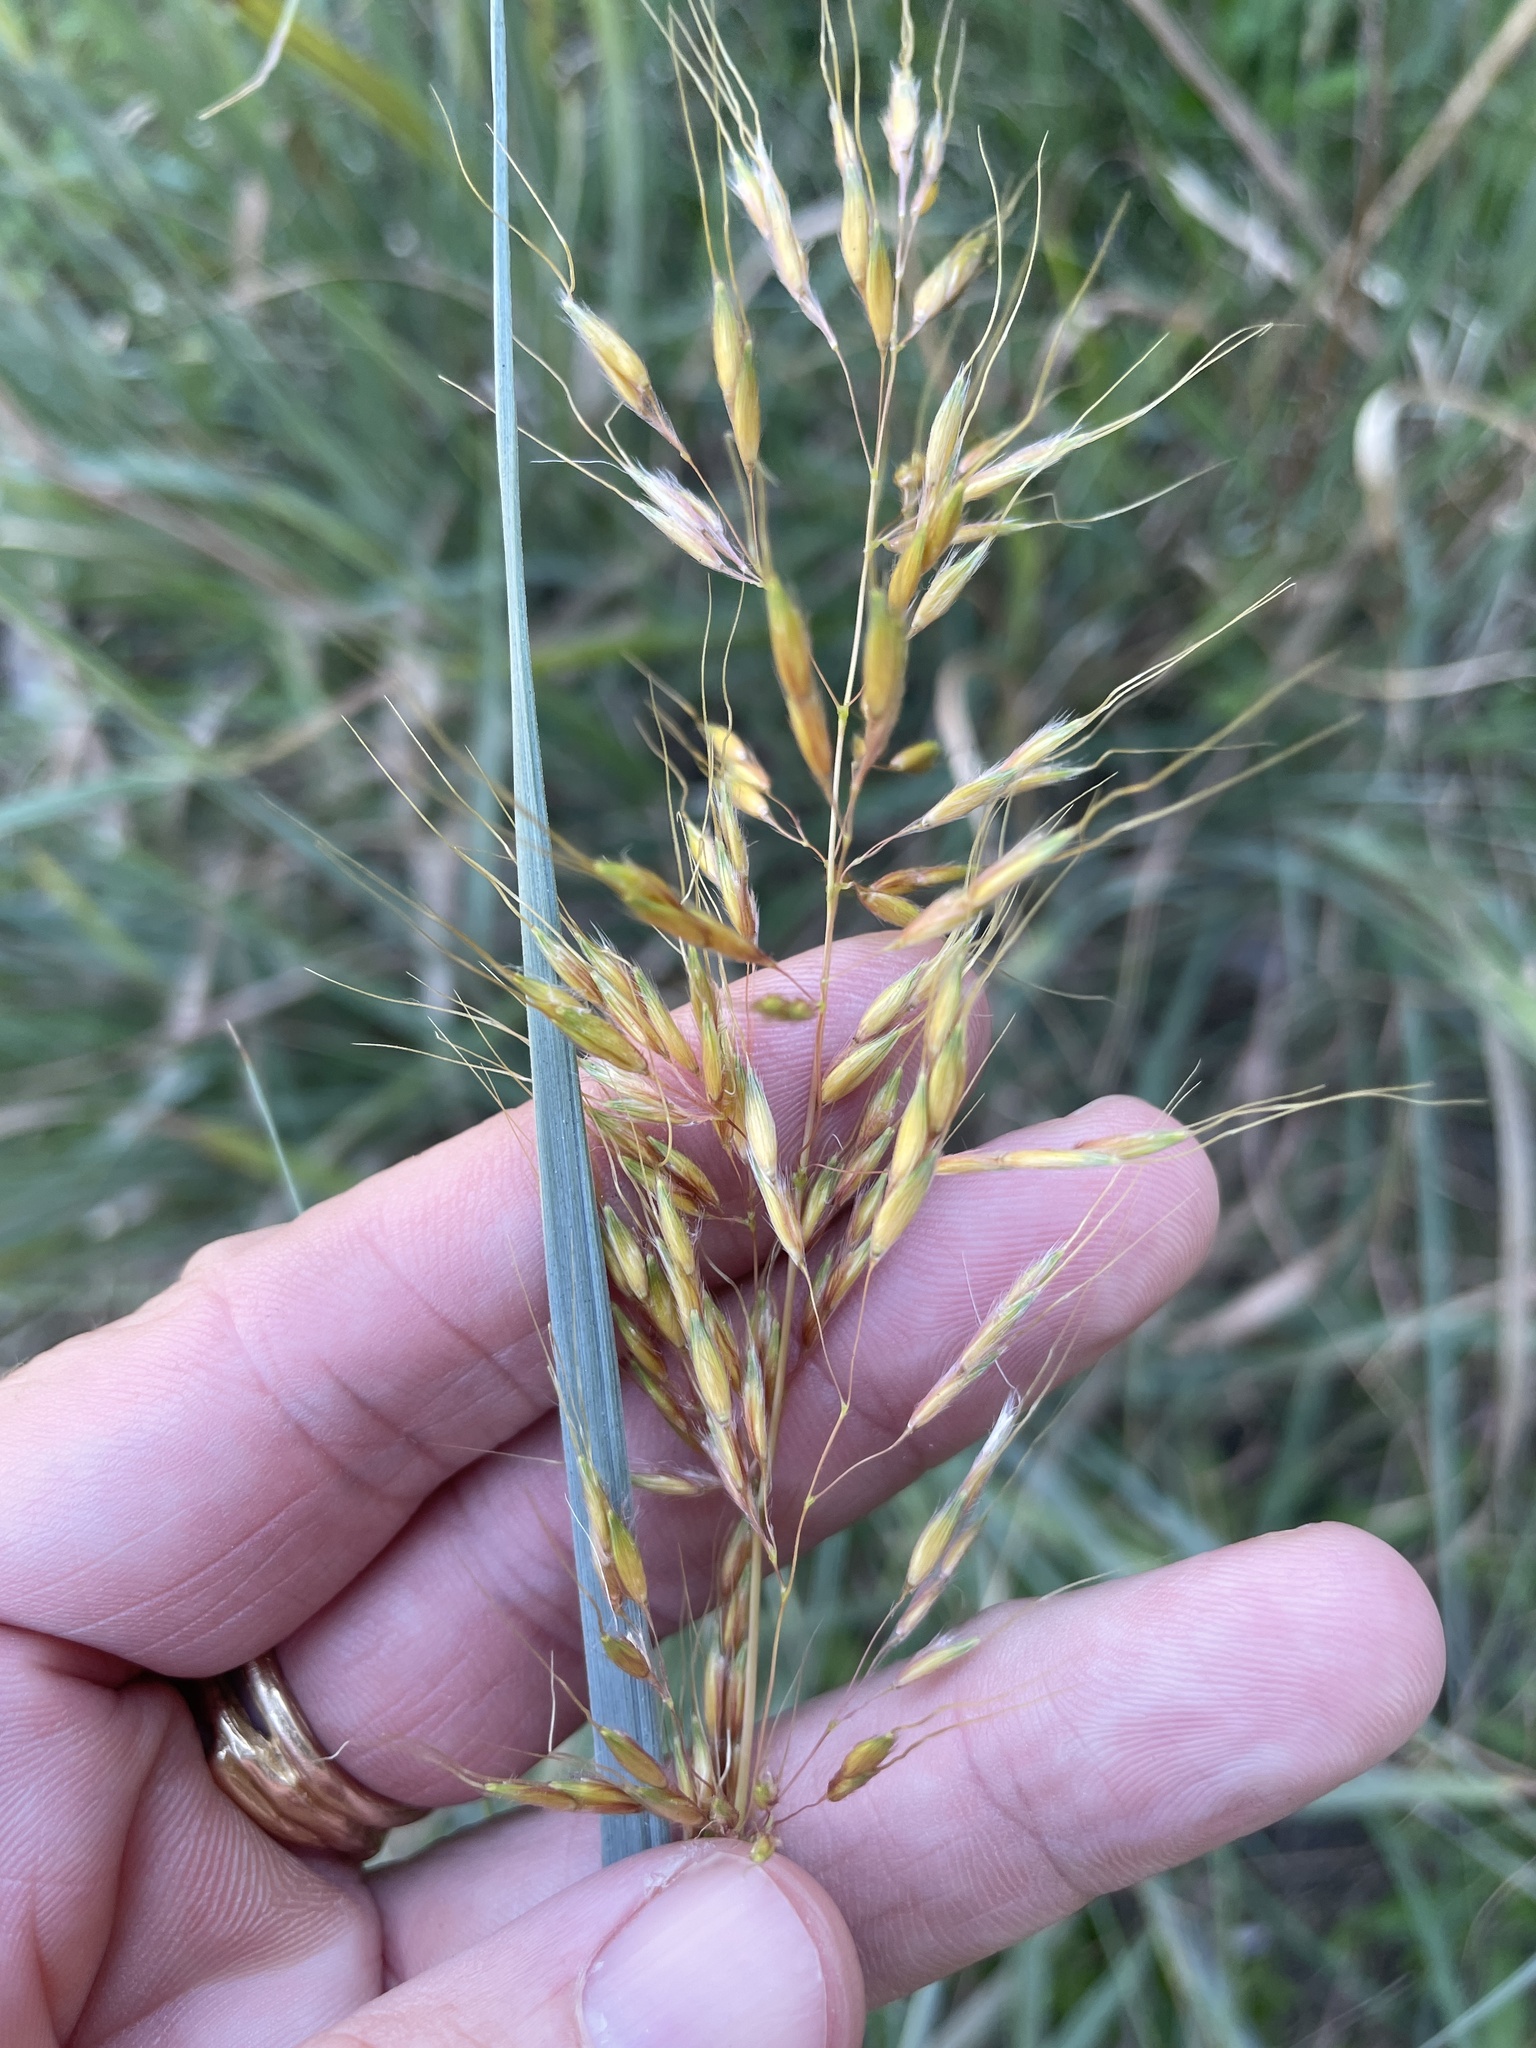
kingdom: Plantae
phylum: Tracheophyta
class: Liliopsida
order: Poales
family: Poaceae
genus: Sorghastrum
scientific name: Sorghastrum nutans
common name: Indian grass
